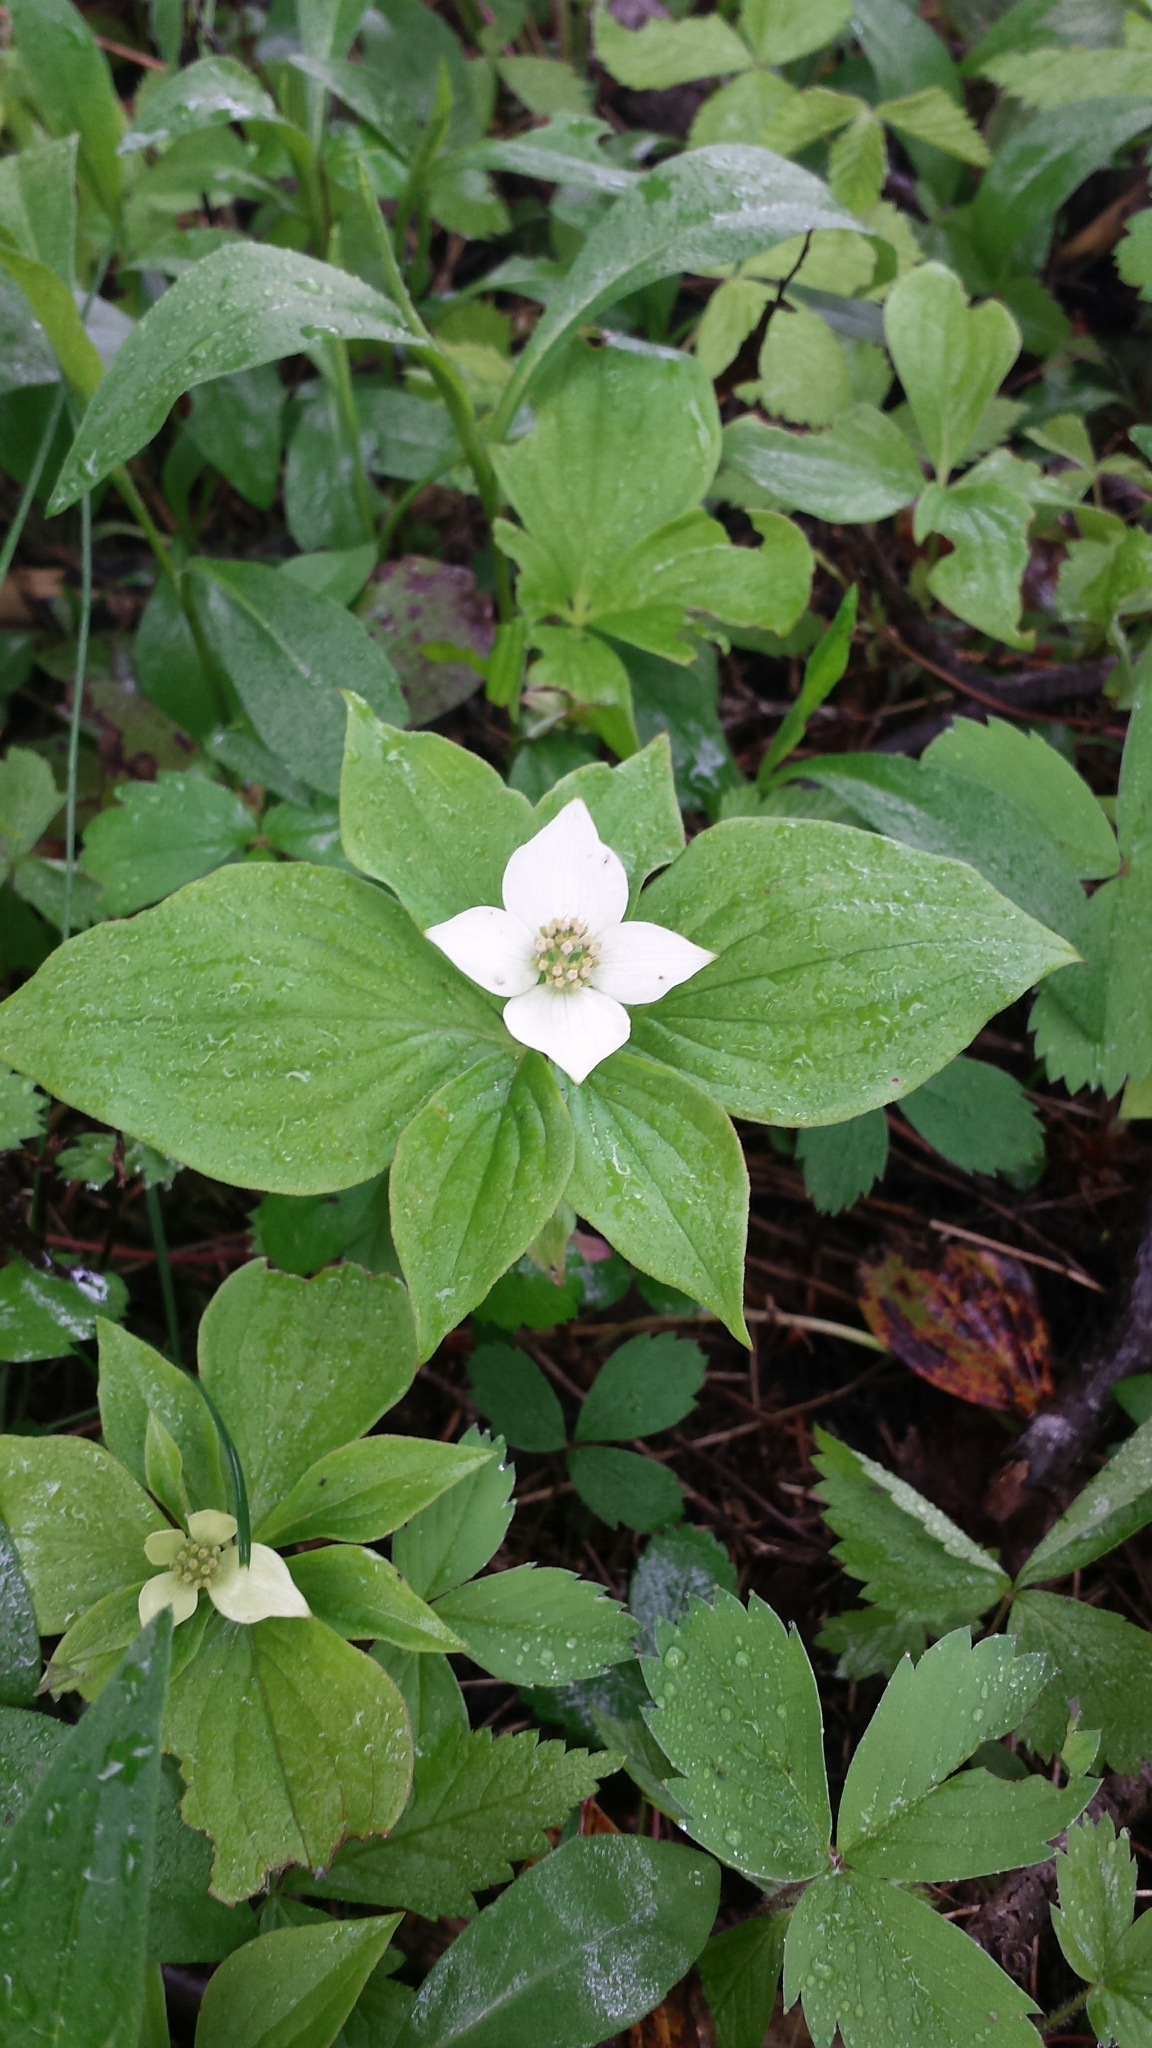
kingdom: Plantae
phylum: Tracheophyta
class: Magnoliopsida
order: Cornales
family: Cornaceae
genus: Cornus
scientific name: Cornus canadensis
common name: Creeping dogwood
